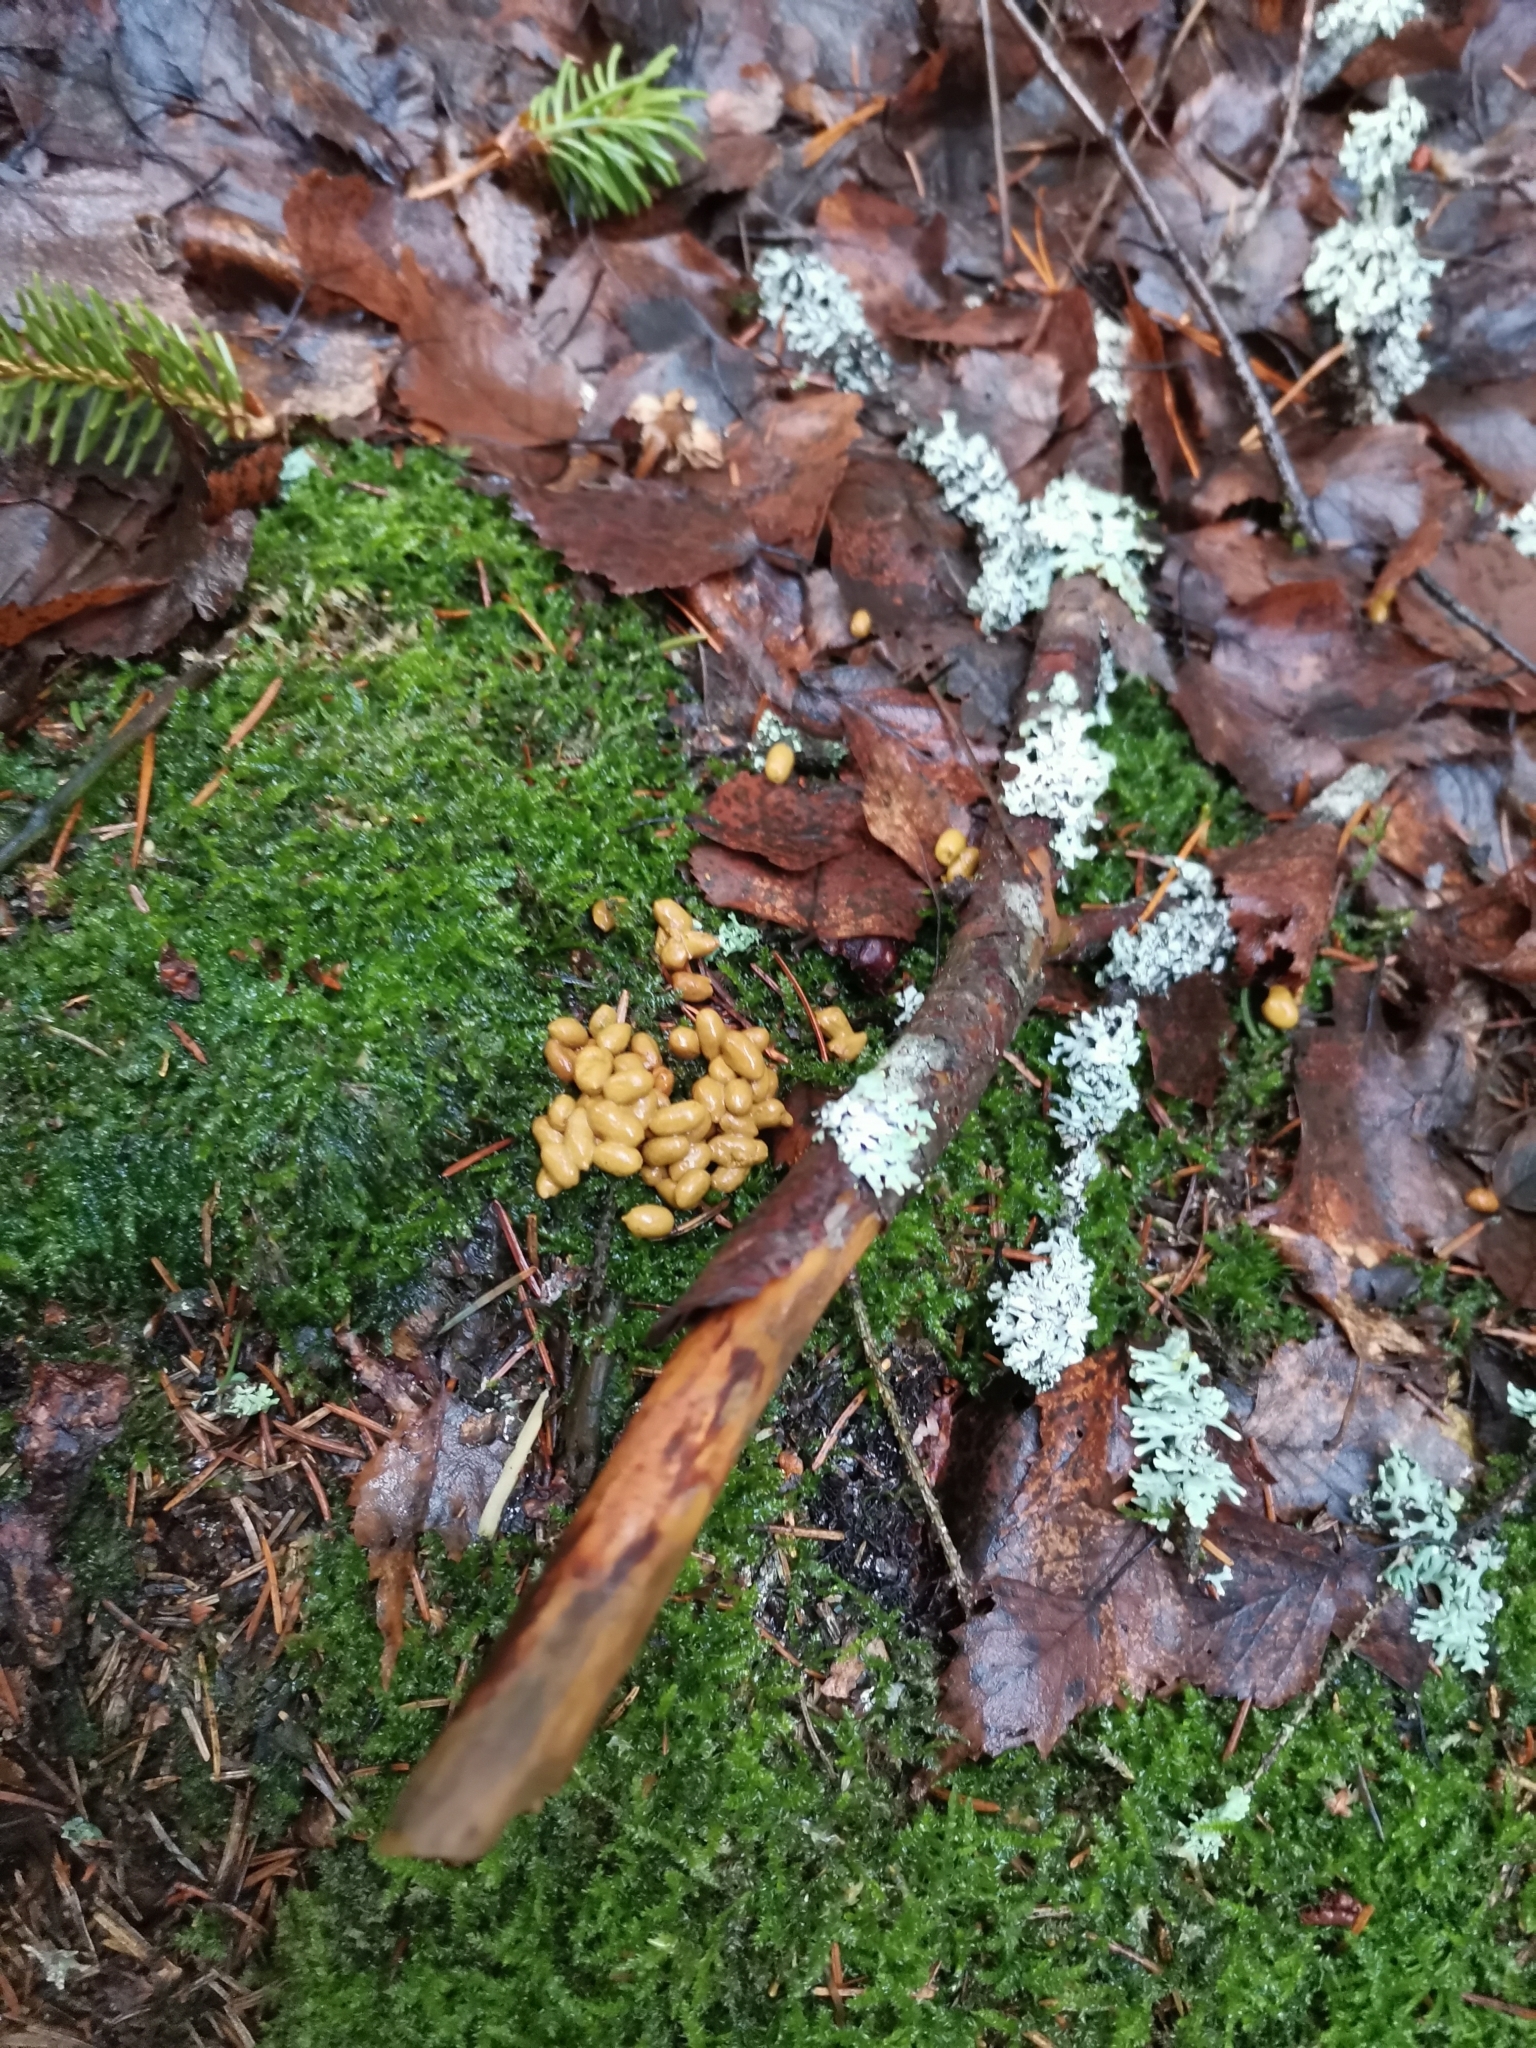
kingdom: Animalia
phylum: Chordata
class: Mammalia
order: Rodentia
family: Sciuridae
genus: Pteromys
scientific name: Pteromys volans
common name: Siberian flying squirrel
